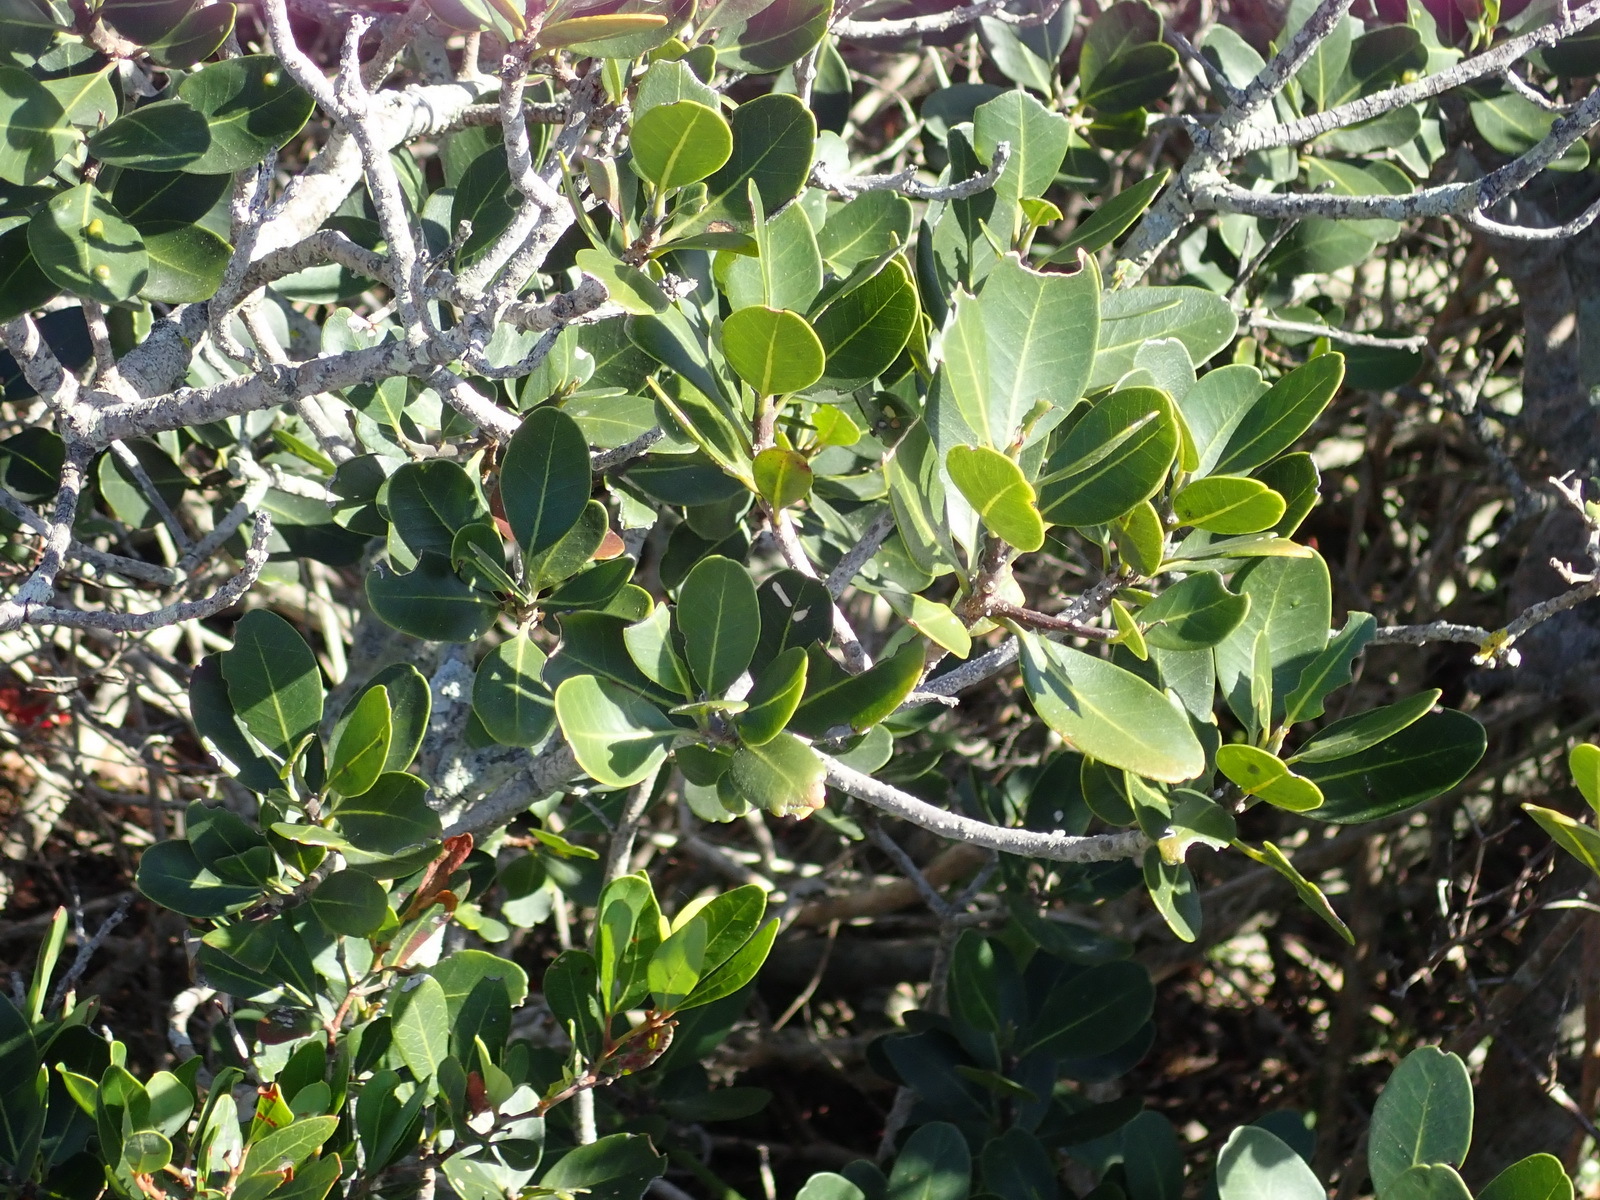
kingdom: Plantae
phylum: Tracheophyta
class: Magnoliopsida
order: Ericales
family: Sapotaceae
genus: Sideroxylon
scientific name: Sideroxylon inerme
